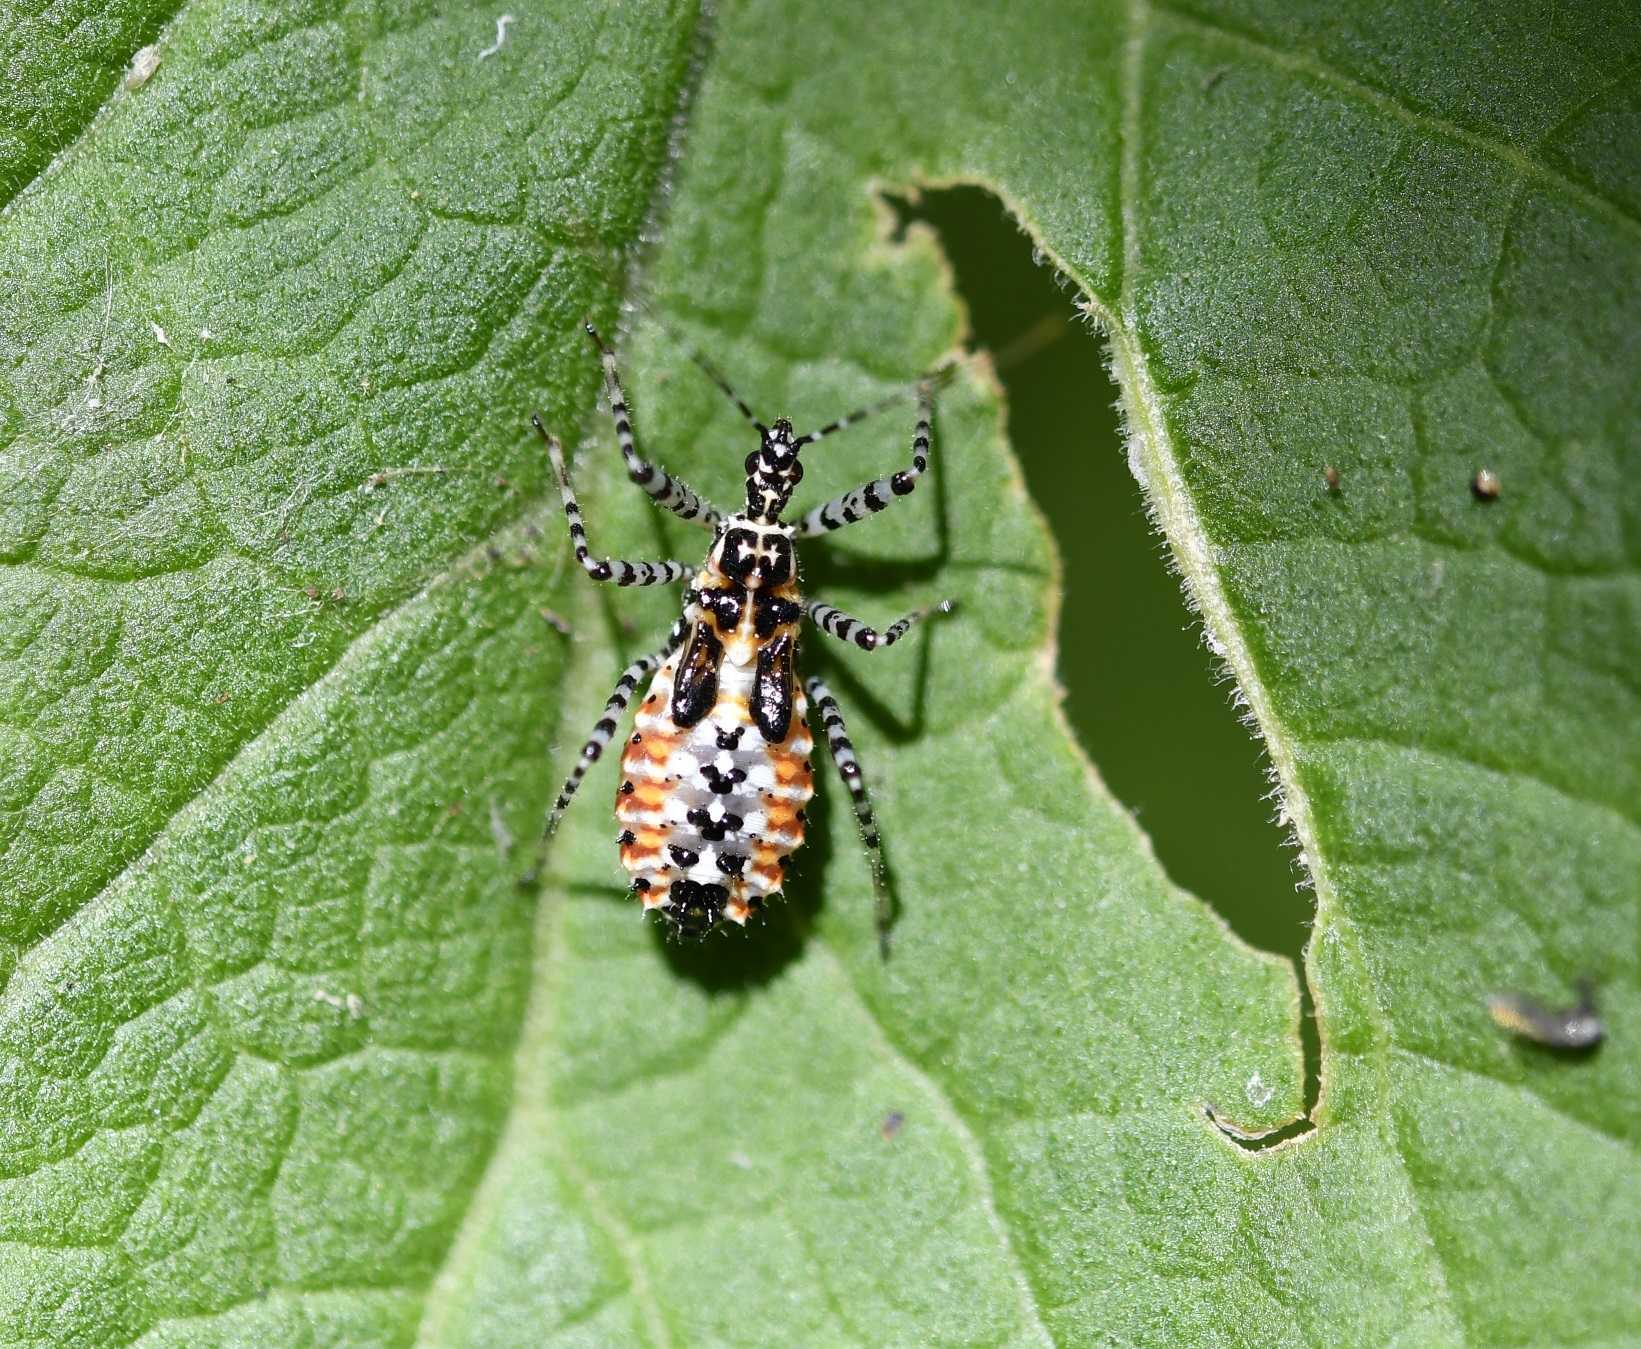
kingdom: Animalia
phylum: Arthropoda
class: Insecta
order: Hemiptera
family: Reduviidae
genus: Pselliopus
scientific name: Pselliopus zebra
